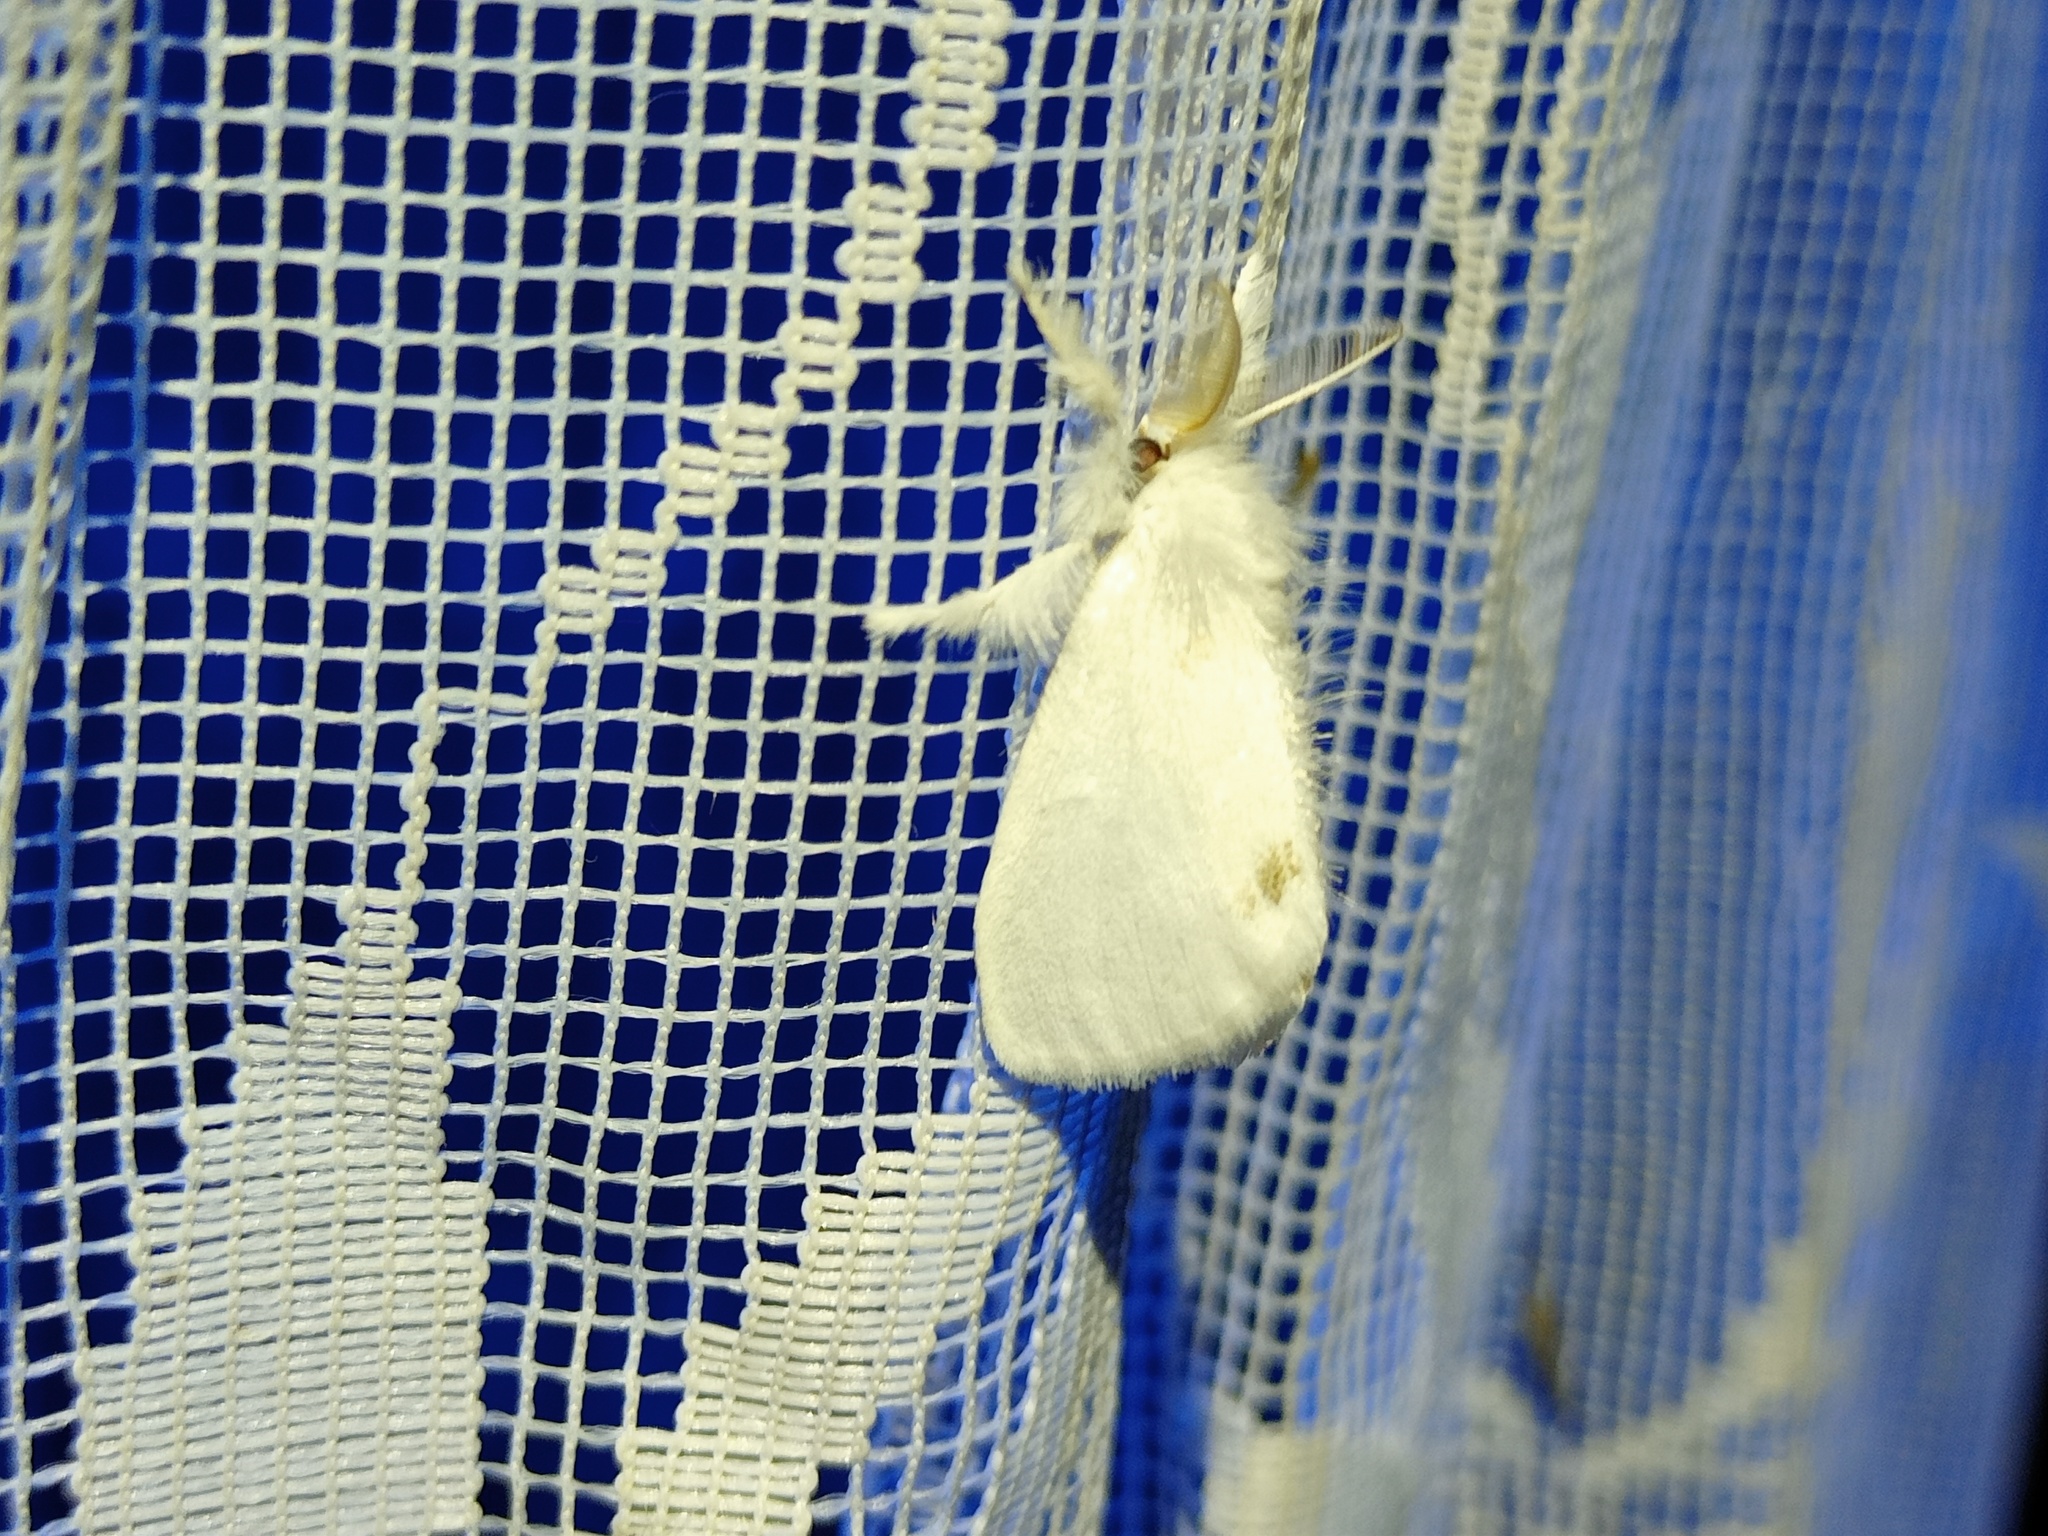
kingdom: Animalia
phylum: Arthropoda
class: Insecta
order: Lepidoptera
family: Erebidae
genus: Sphrageidus
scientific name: Sphrageidus similis
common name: Yellow-tail
